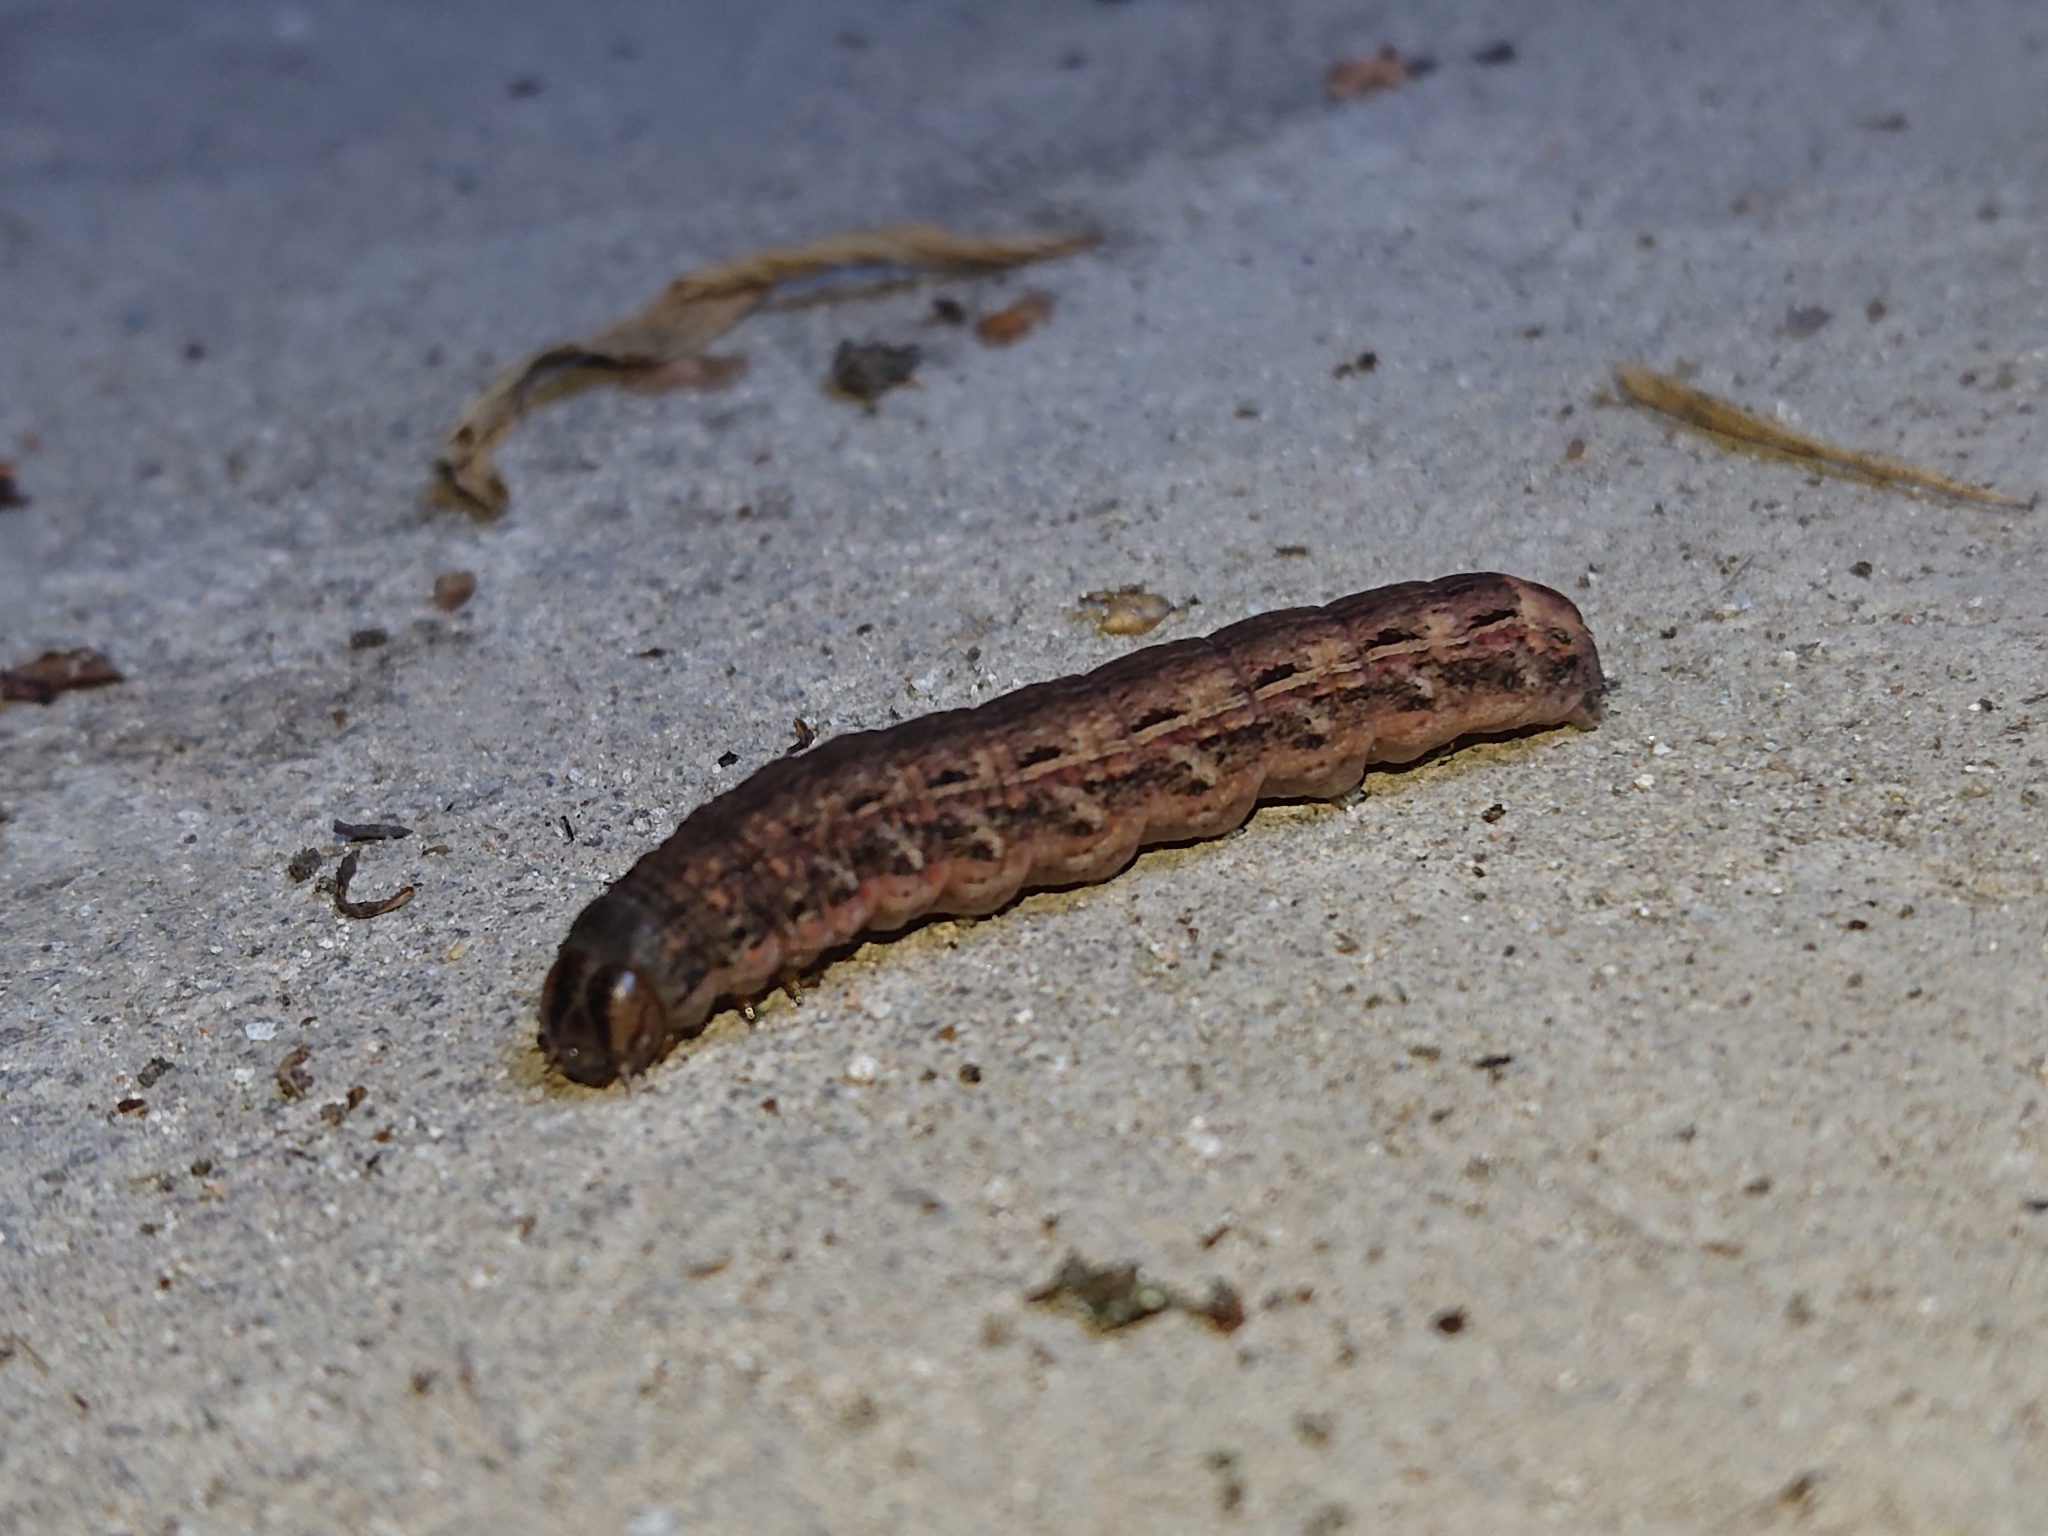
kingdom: Animalia
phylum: Arthropoda
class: Insecta
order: Lepidoptera
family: Noctuidae
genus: Noctua
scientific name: Noctua pronuba
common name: Large yellow underwing
